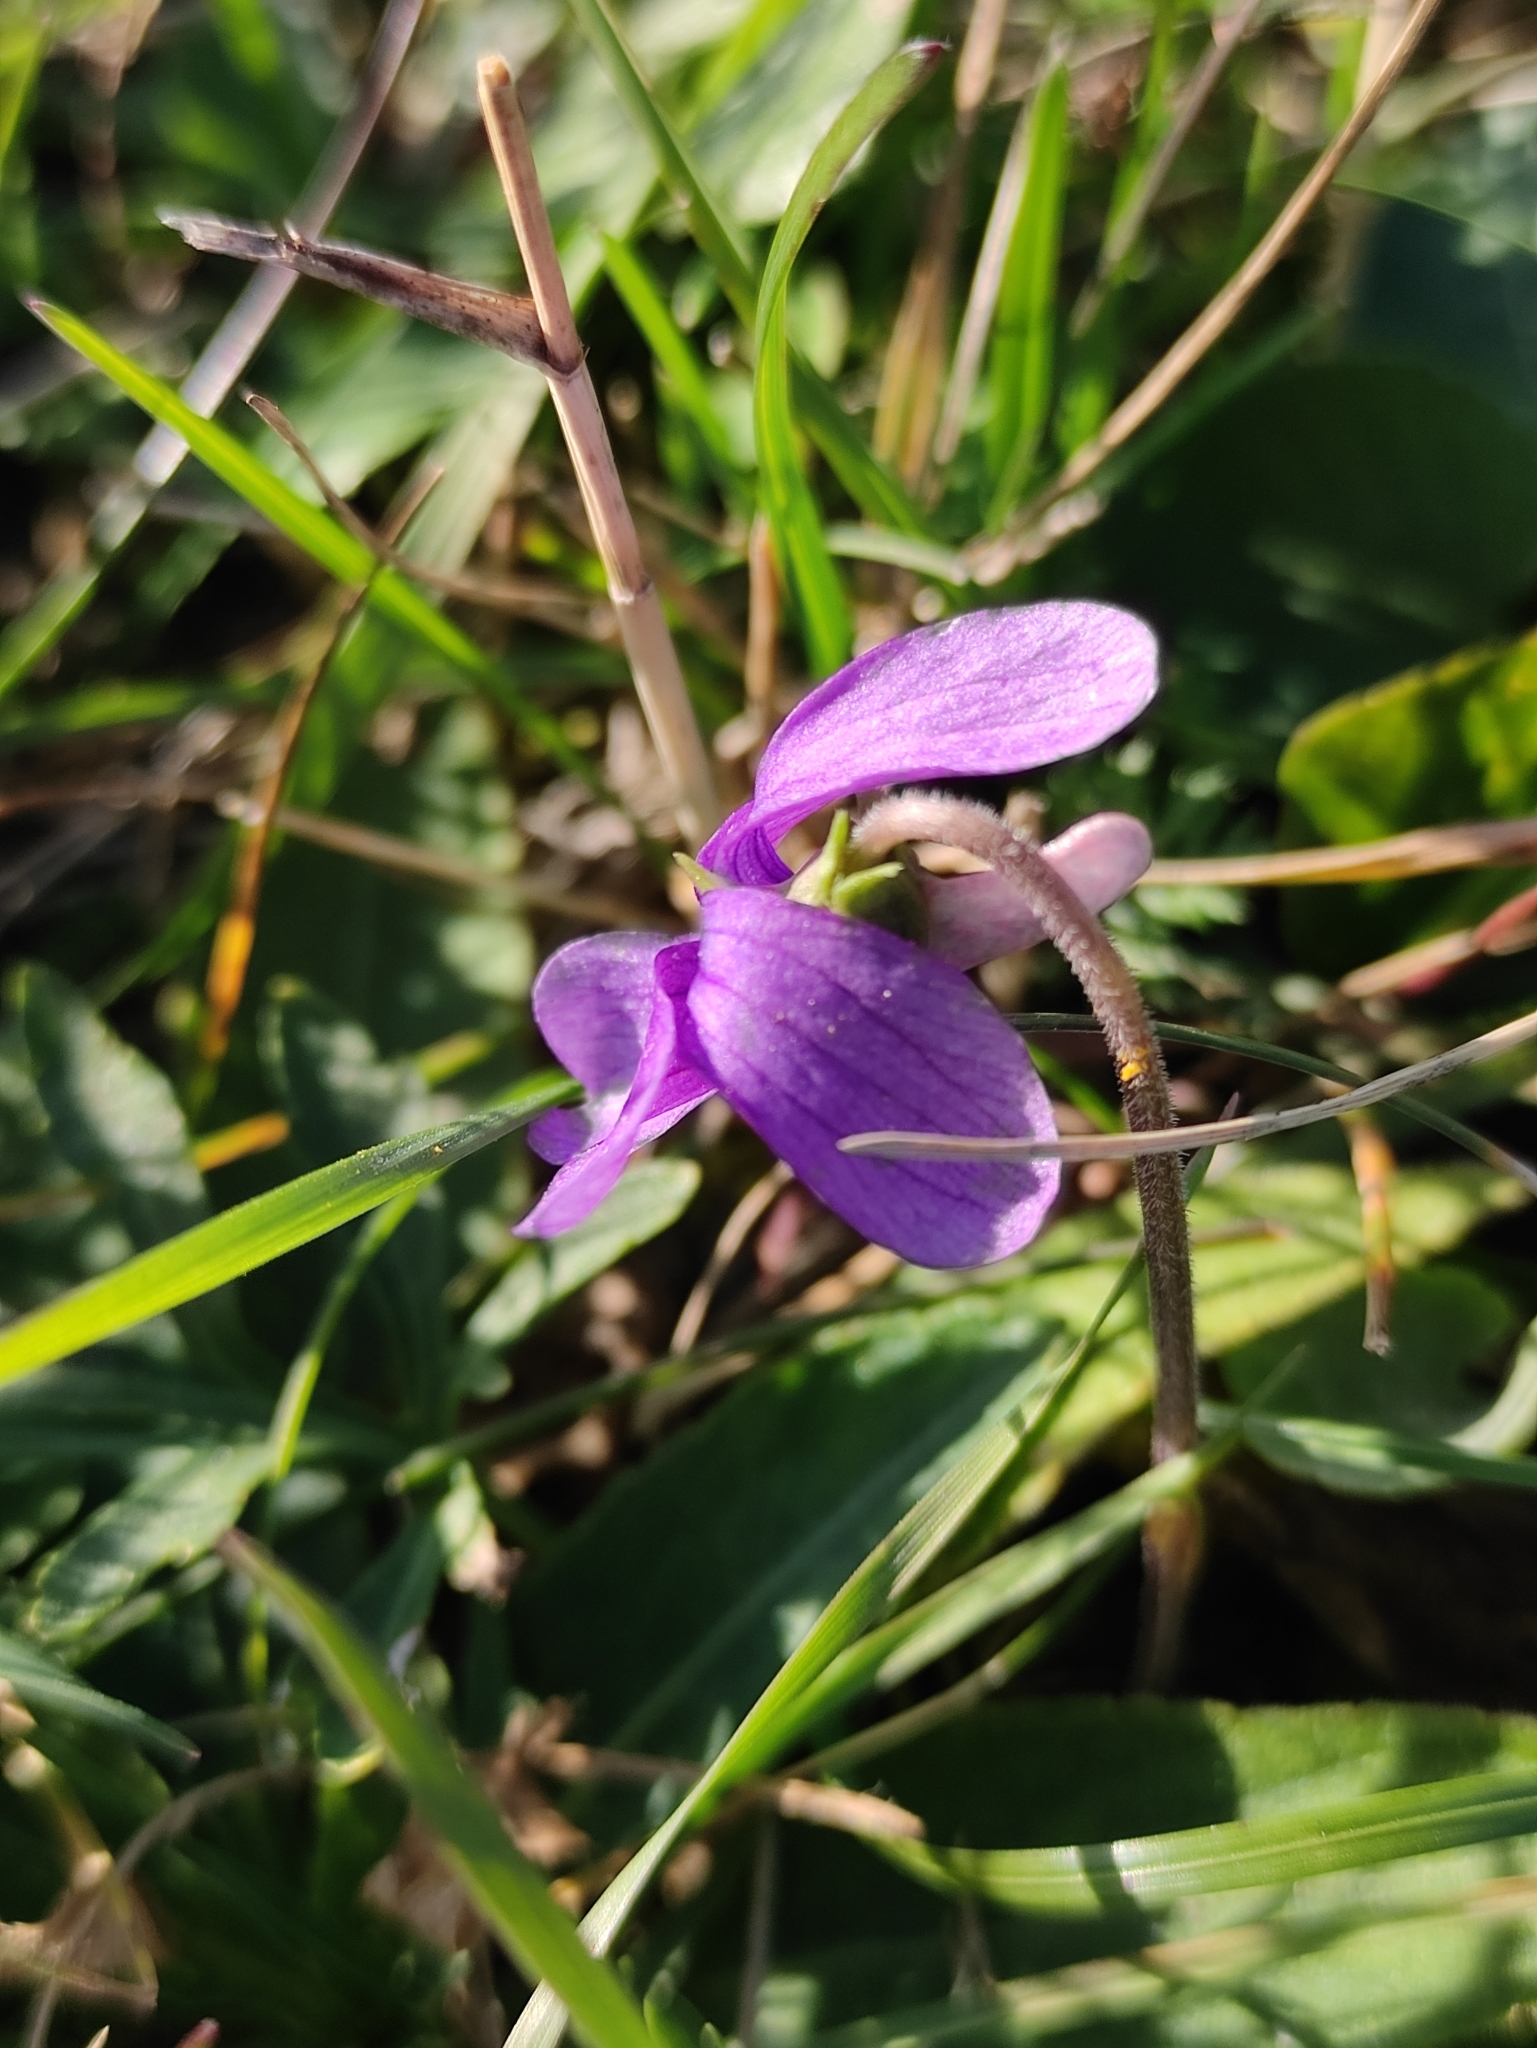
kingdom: Plantae
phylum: Tracheophyta
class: Magnoliopsida
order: Malpighiales
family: Violaceae
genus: Viola
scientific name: Viola multifida
